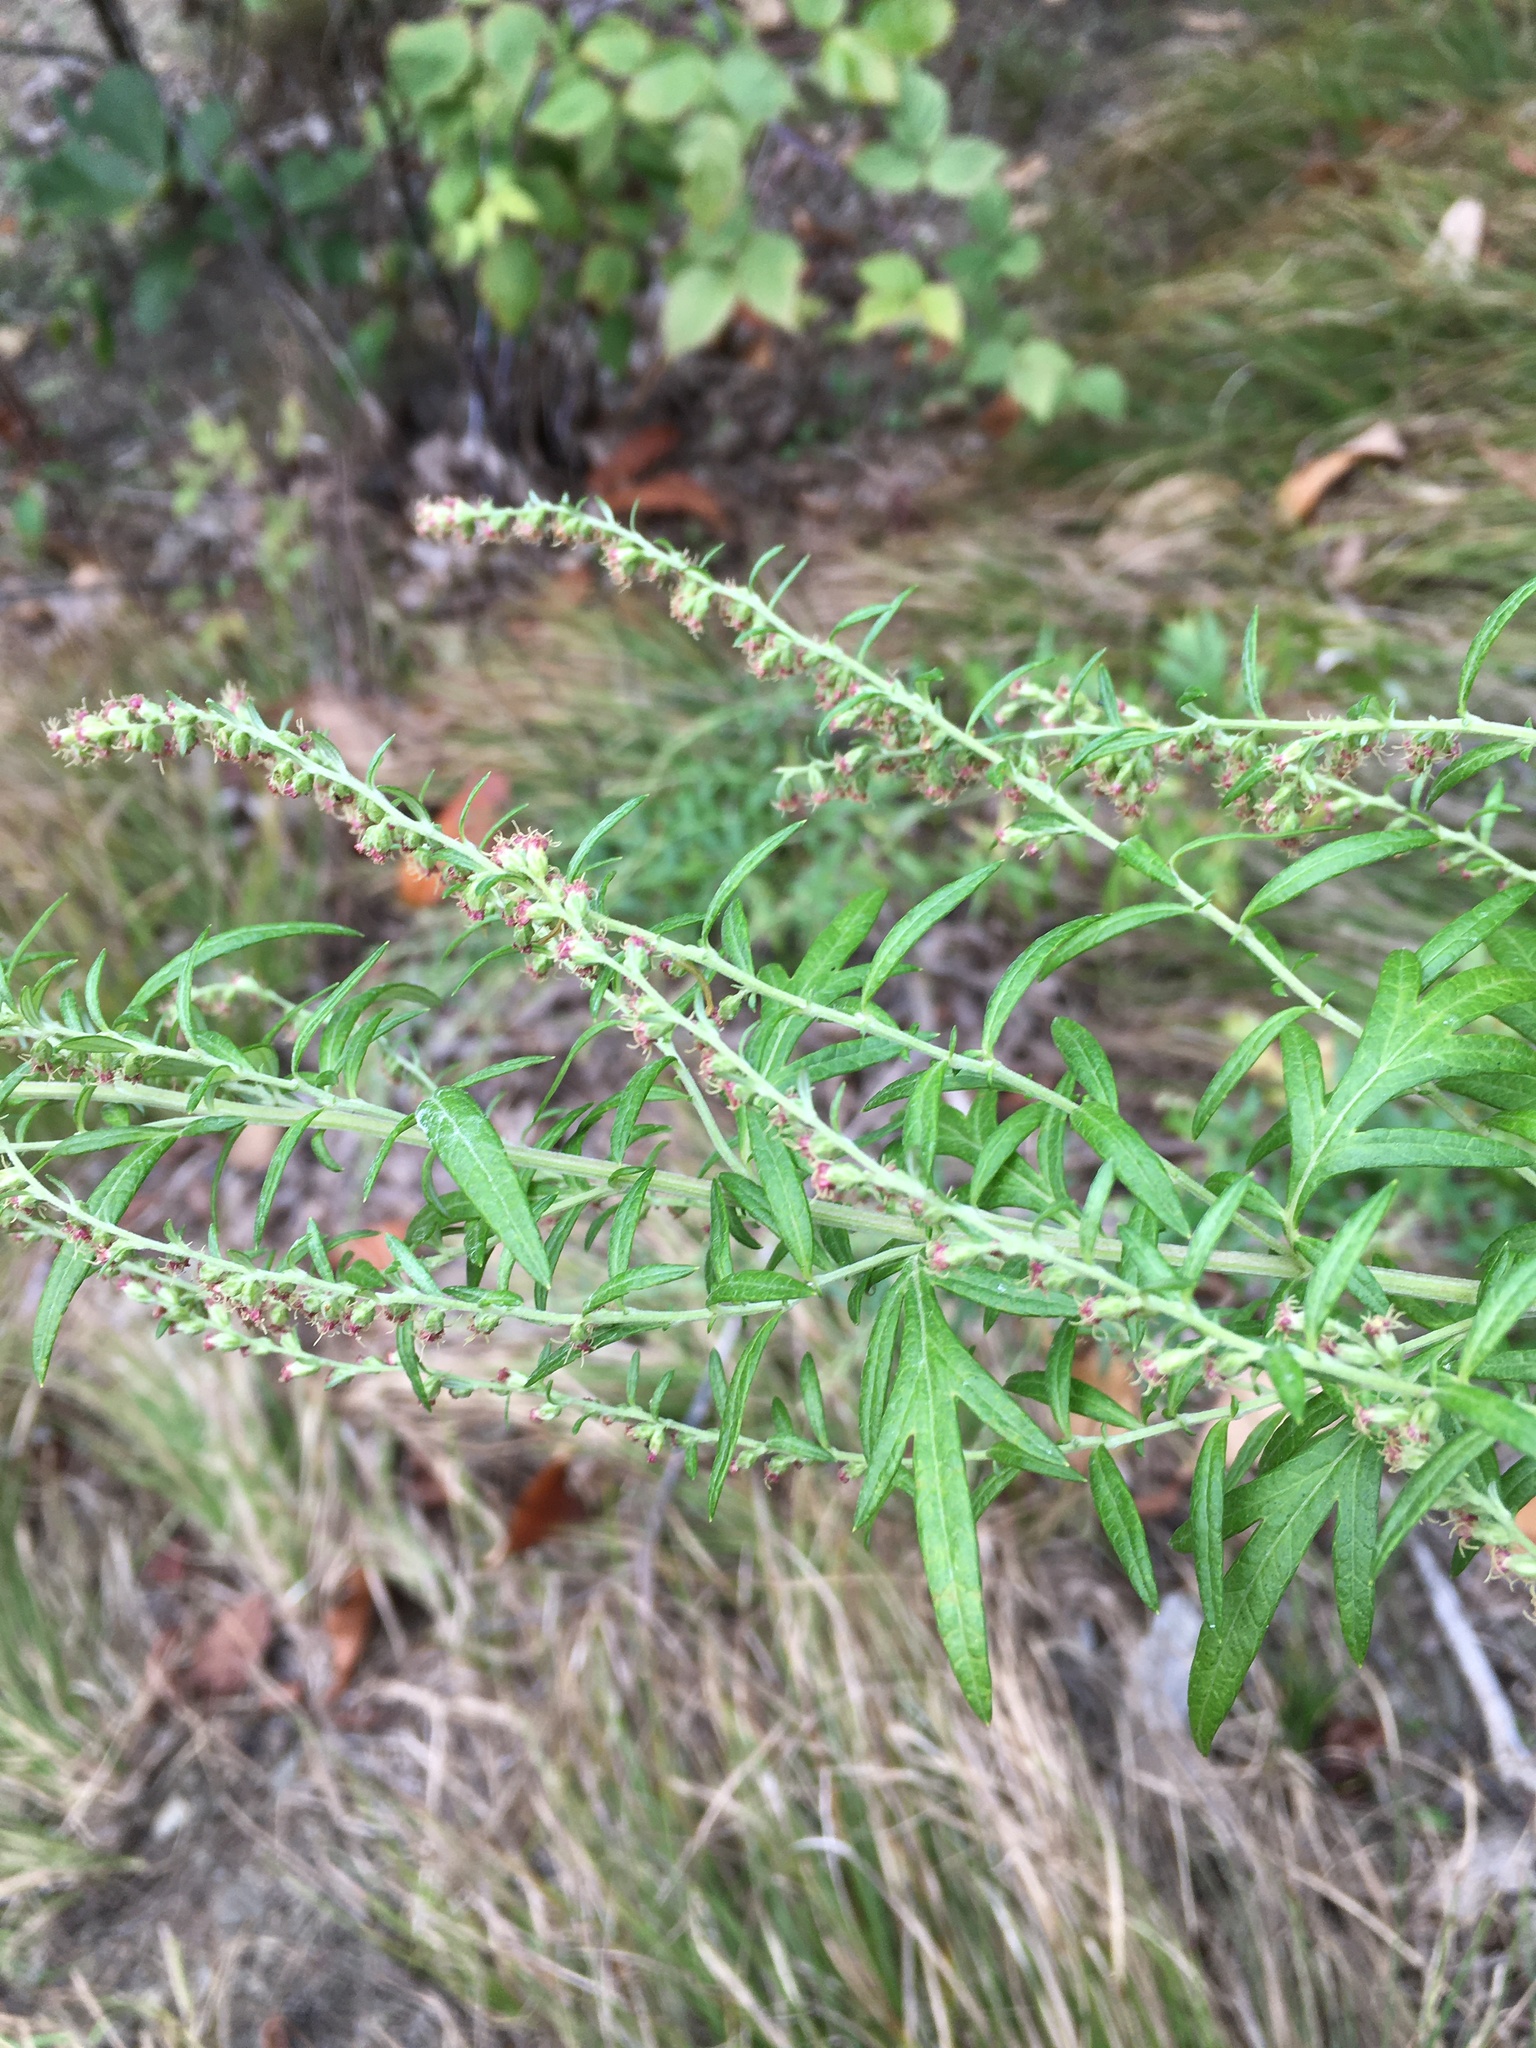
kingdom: Plantae
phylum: Tracheophyta
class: Magnoliopsida
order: Asterales
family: Asteraceae
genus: Artemisia
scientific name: Artemisia vulgaris
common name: Mugwort
